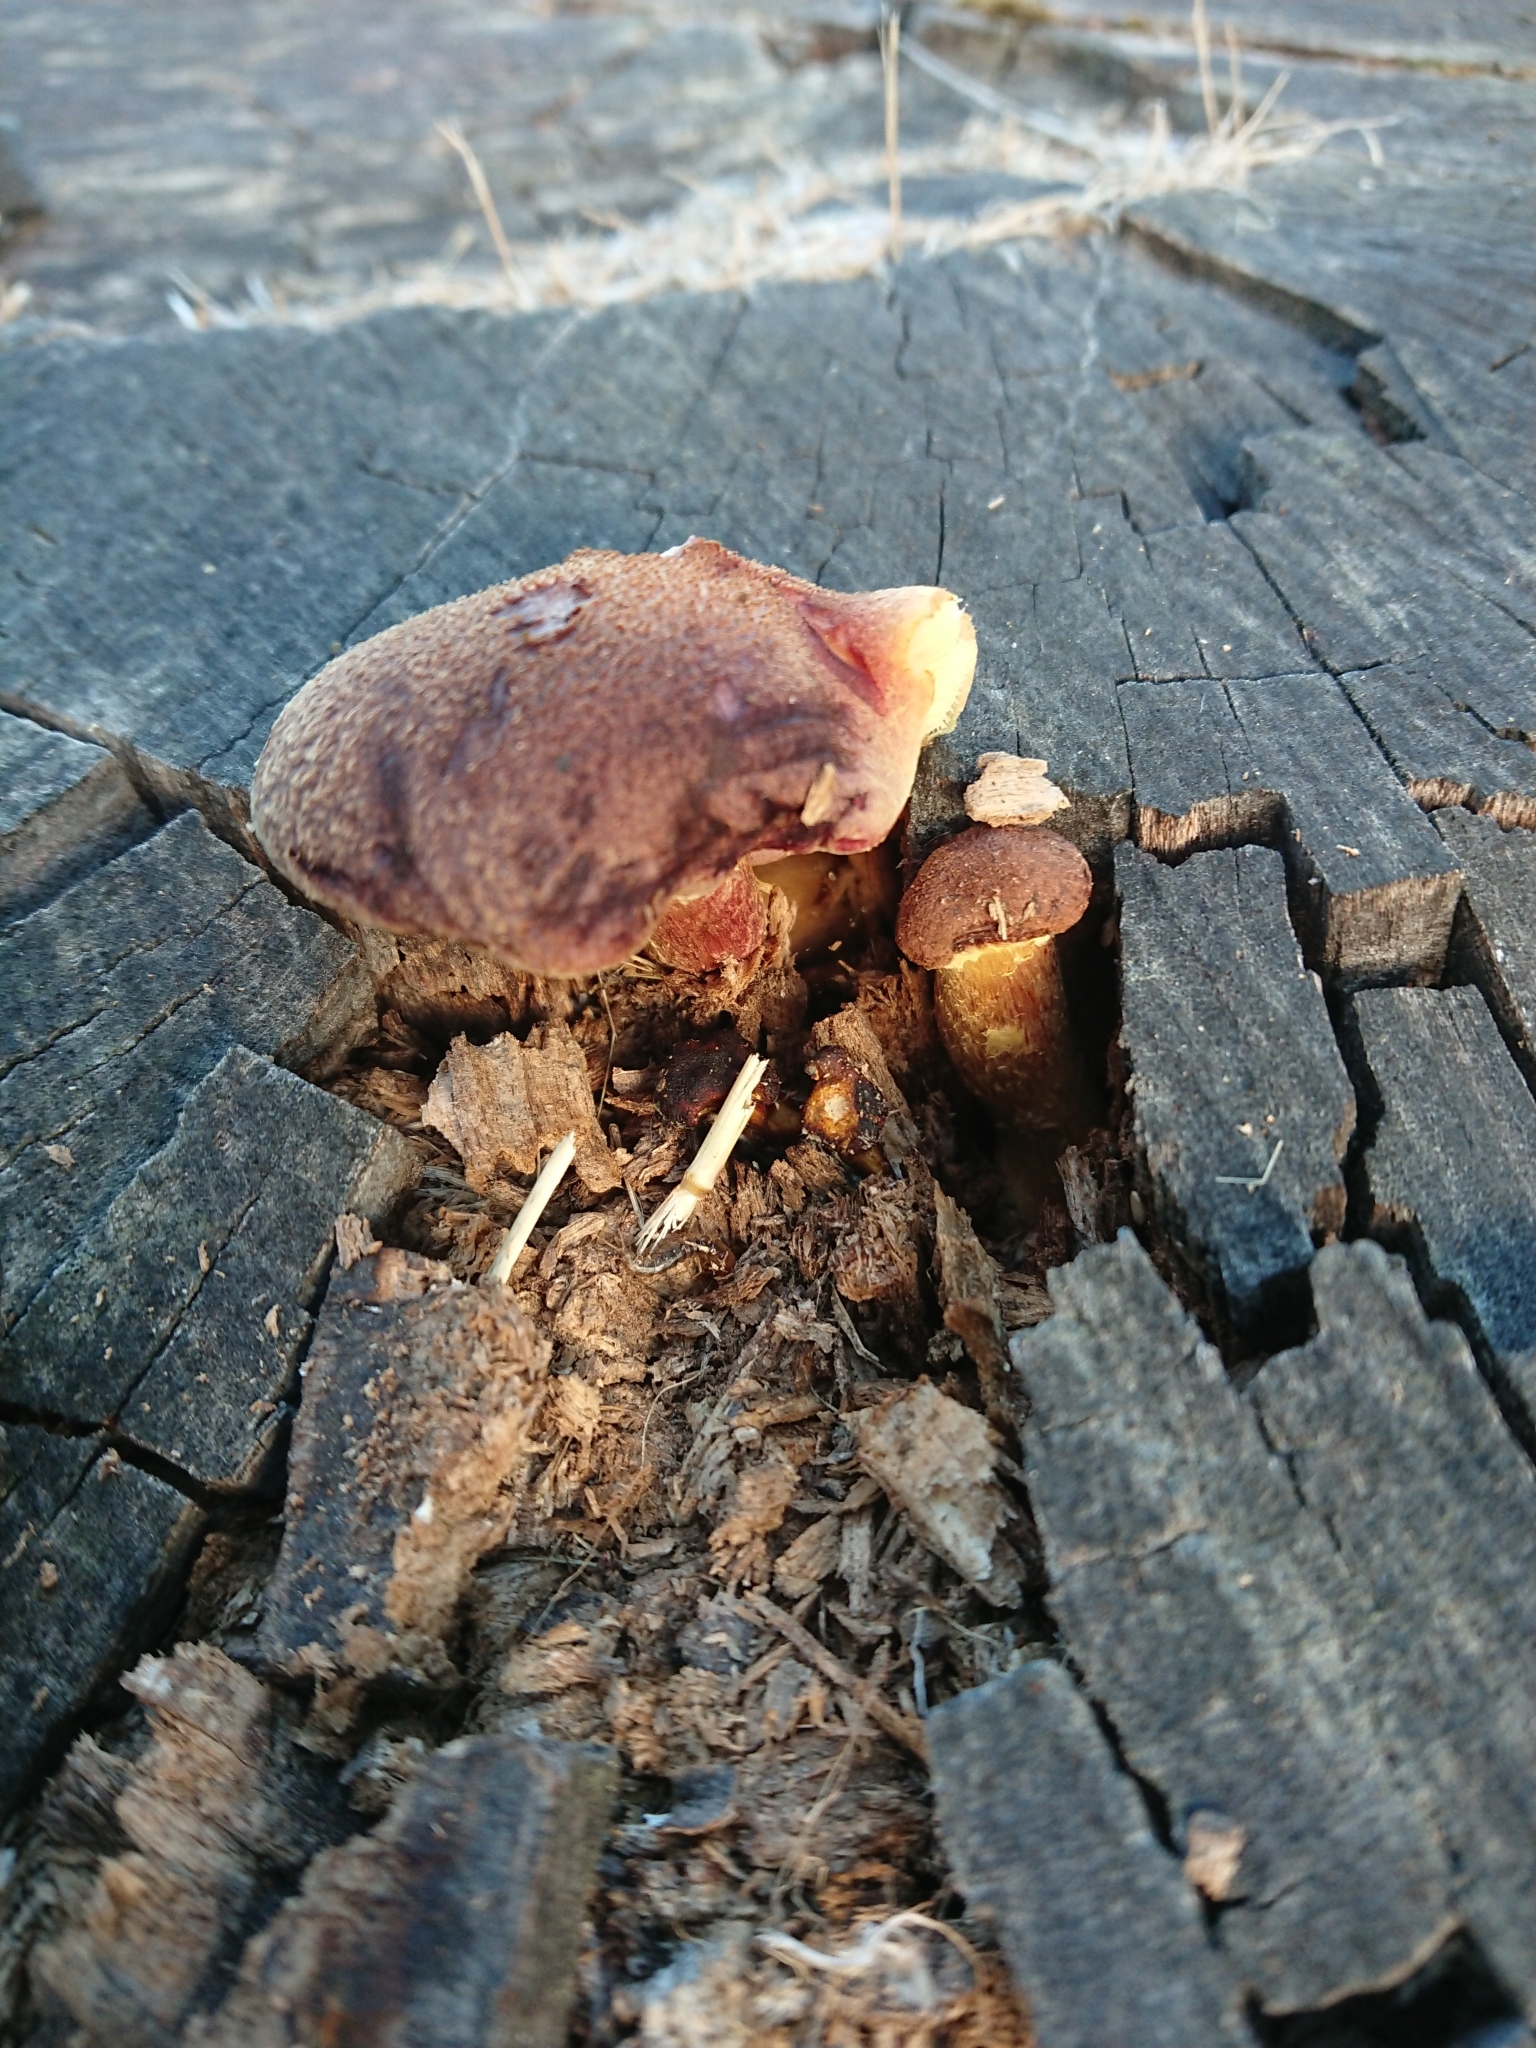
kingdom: Fungi
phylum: Basidiomycota
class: Agaricomycetes
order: Agaricales
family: Hymenogastraceae
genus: Gymnopilus
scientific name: Gymnopilus purpuratus
